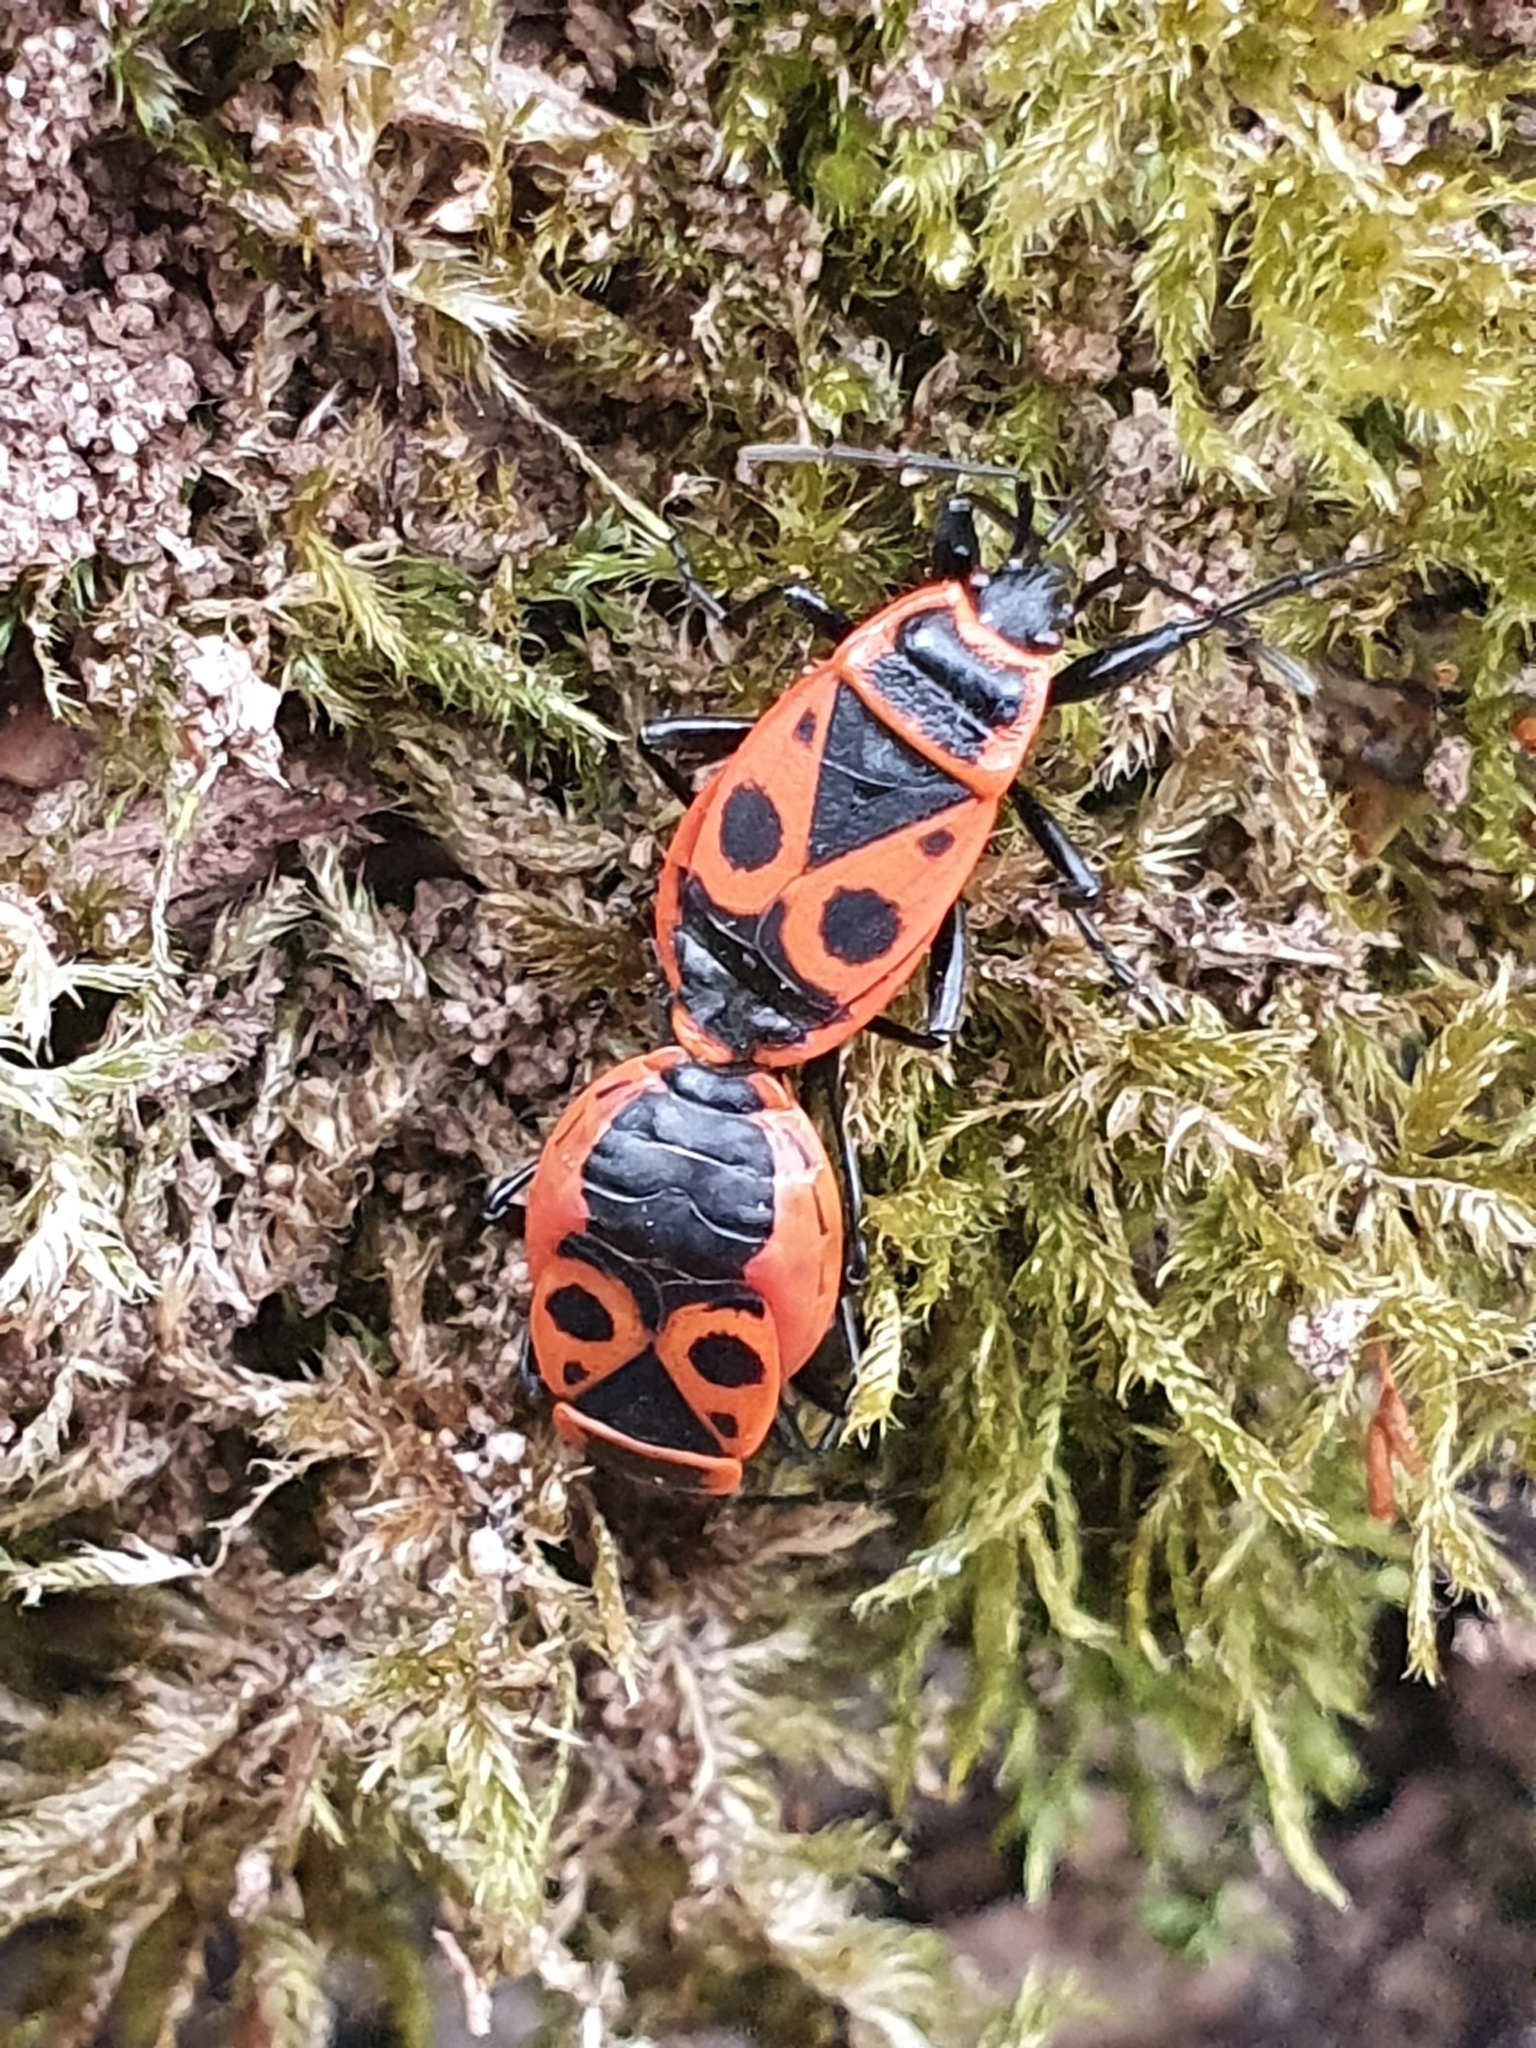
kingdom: Animalia
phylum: Arthropoda
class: Insecta
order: Hemiptera
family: Pyrrhocoridae
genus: Pyrrhocoris
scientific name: Pyrrhocoris apterus
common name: Firebug
